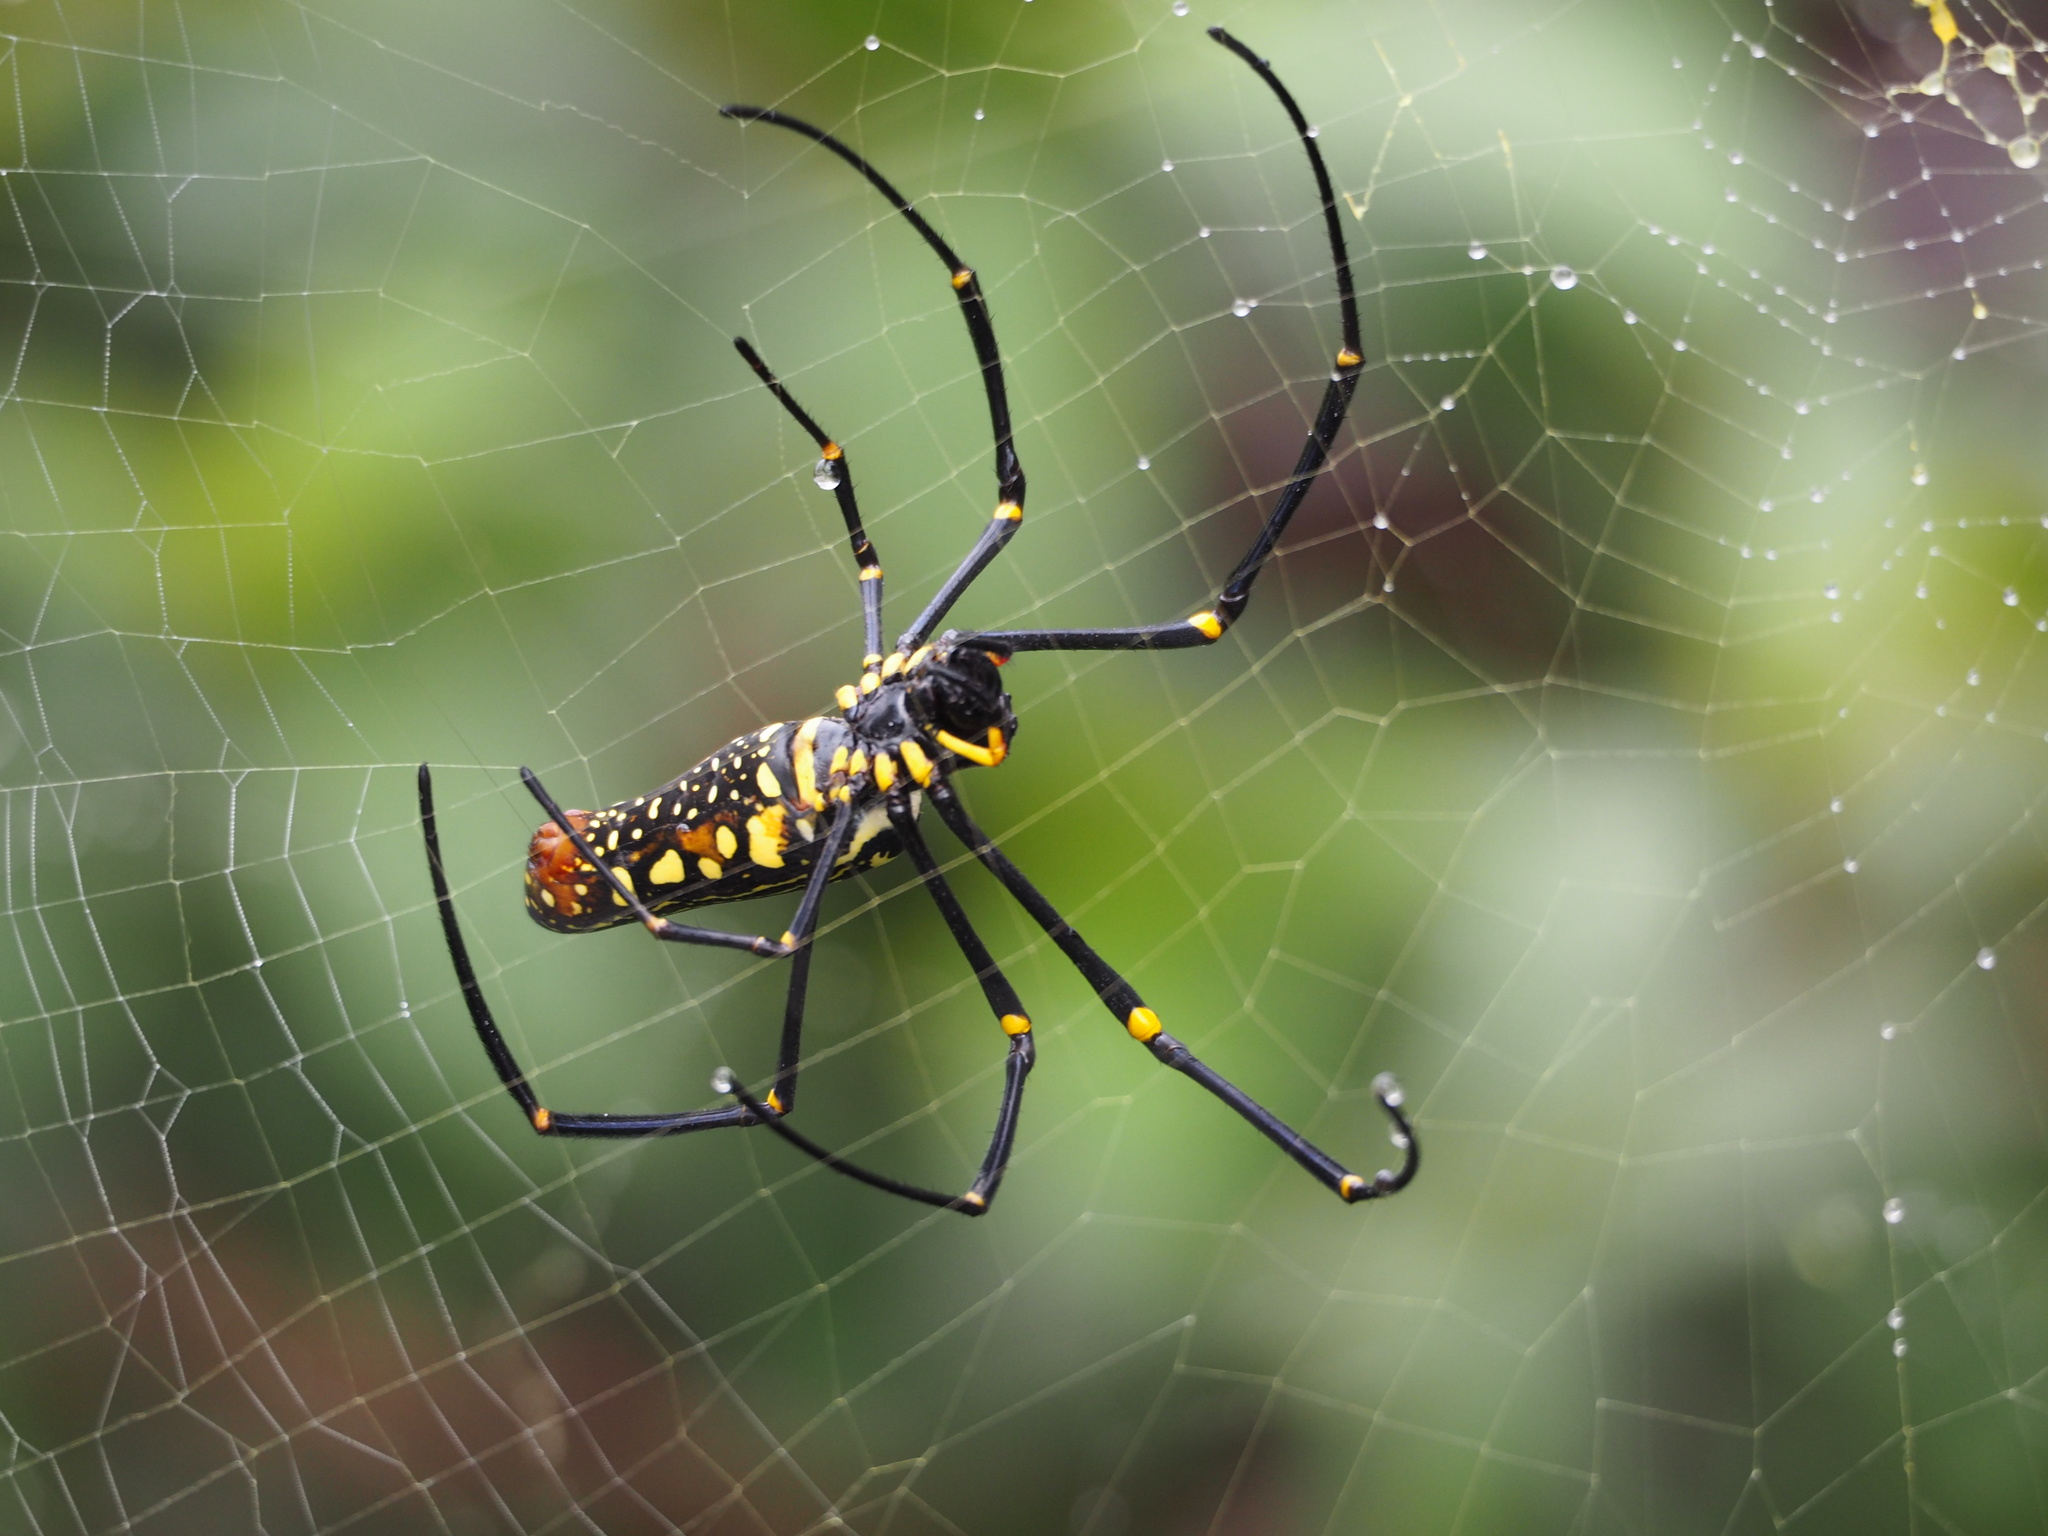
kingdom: Animalia
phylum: Arthropoda
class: Arachnida
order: Araneae
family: Araneidae
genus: Nephila
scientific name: Nephila pilipes
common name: Giant golden orb weaver
